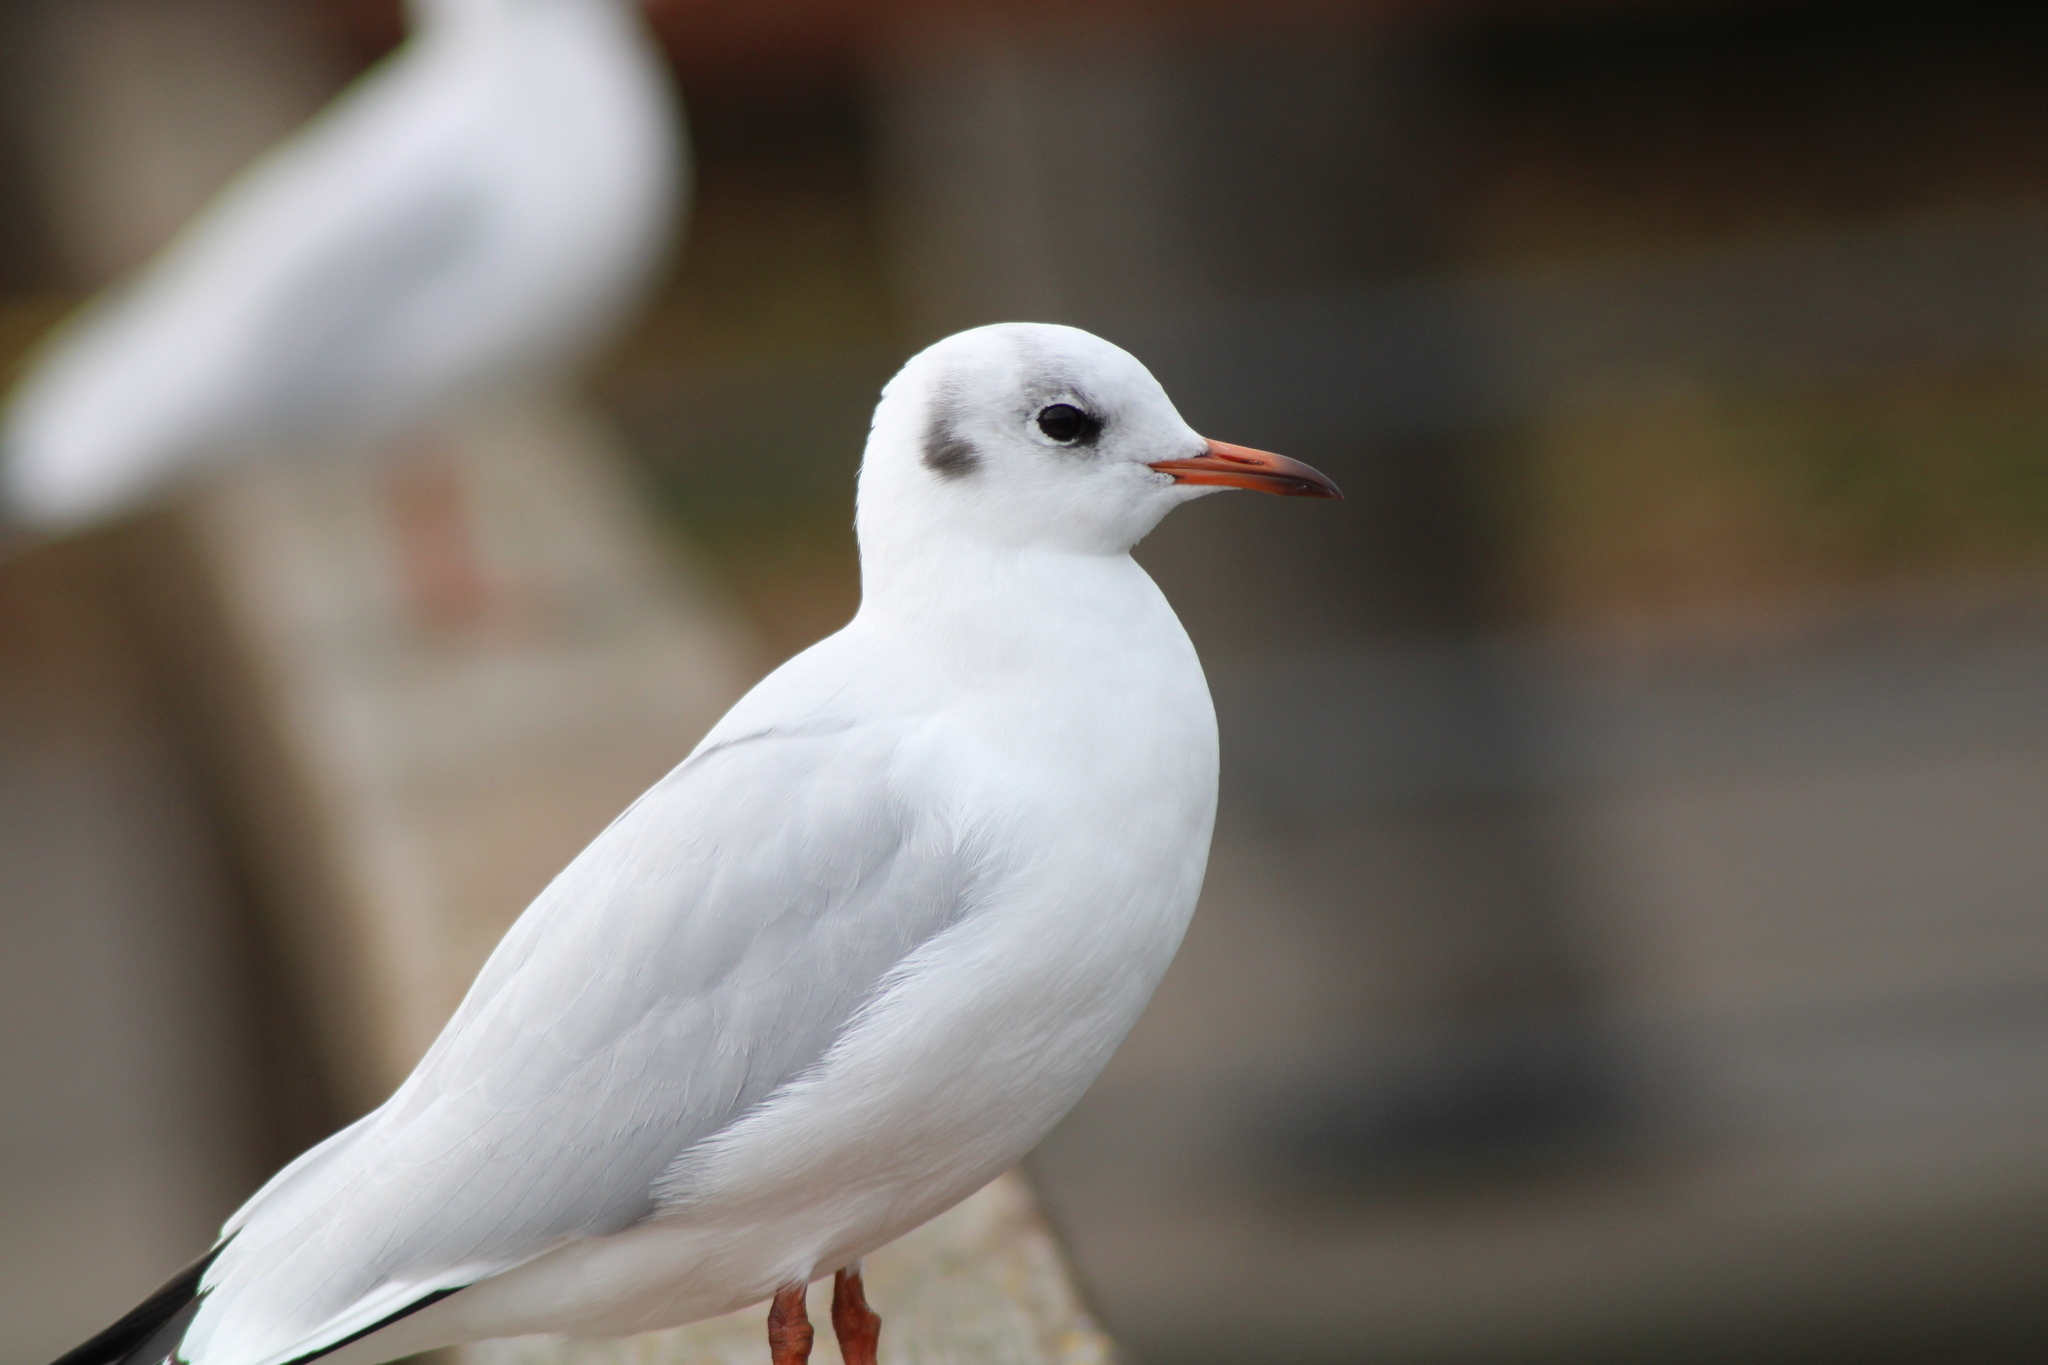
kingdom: Animalia
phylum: Chordata
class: Aves
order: Charadriiformes
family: Laridae
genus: Chroicocephalus
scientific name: Chroicocephalus ridibundus
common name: Black-headed gull
